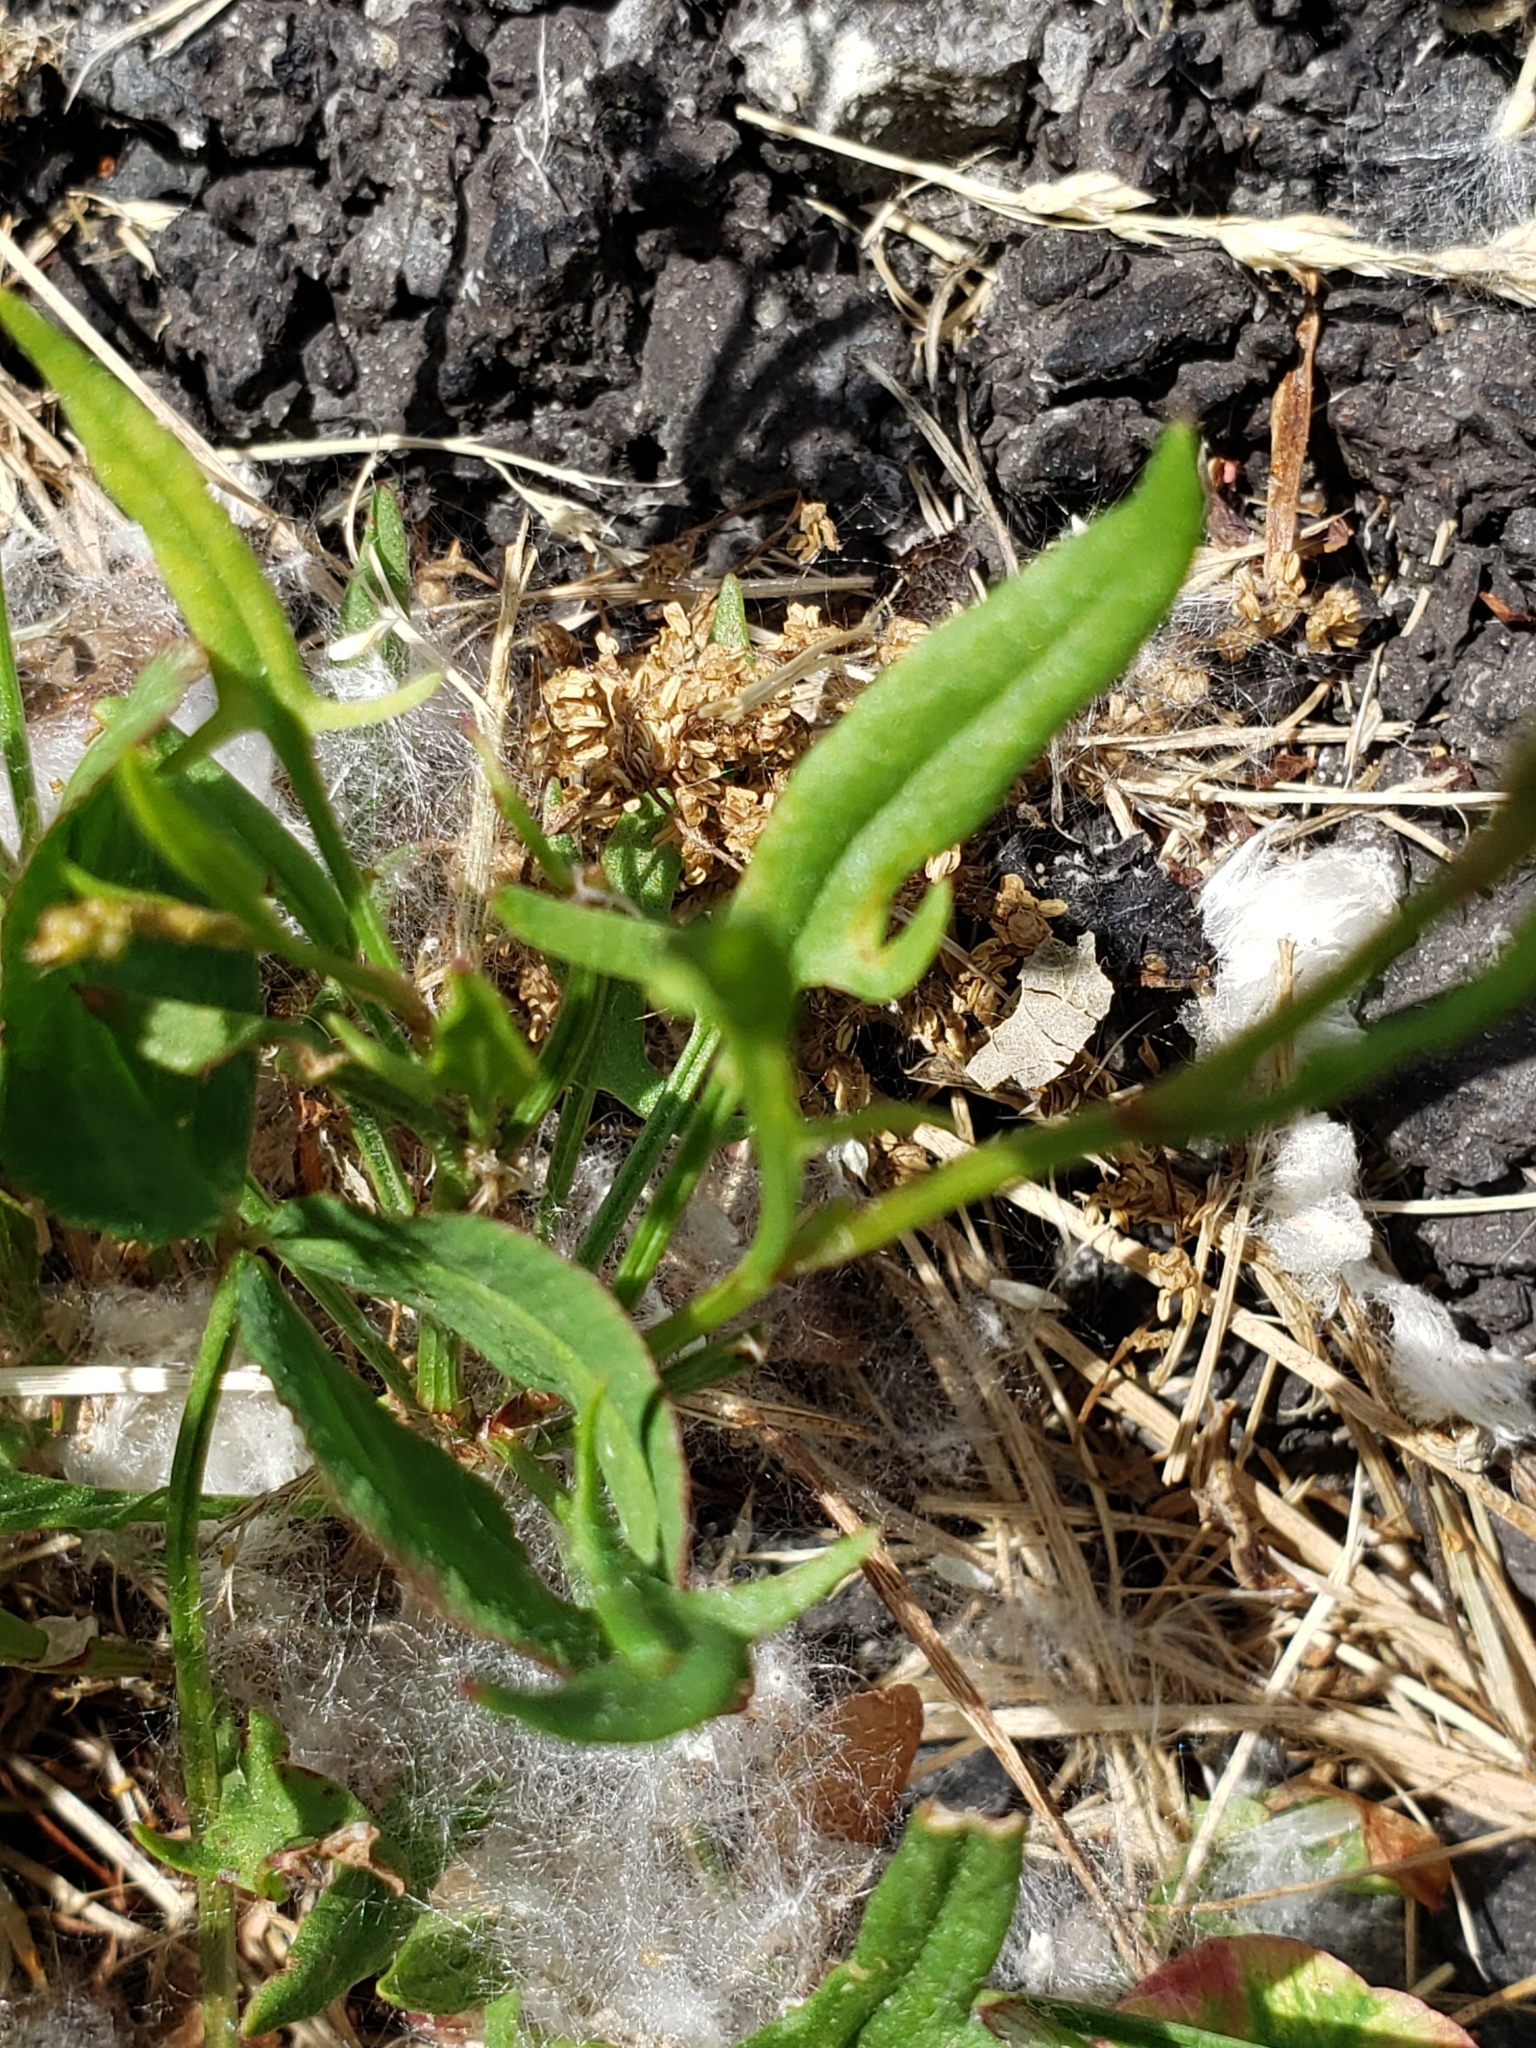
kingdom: Plantae
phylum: Tracheophyta
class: Magnoliopsida
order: Caryophyllales
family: Polygonaceae
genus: Rumex
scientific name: Rumex acetosella
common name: Common sheep sorrel
